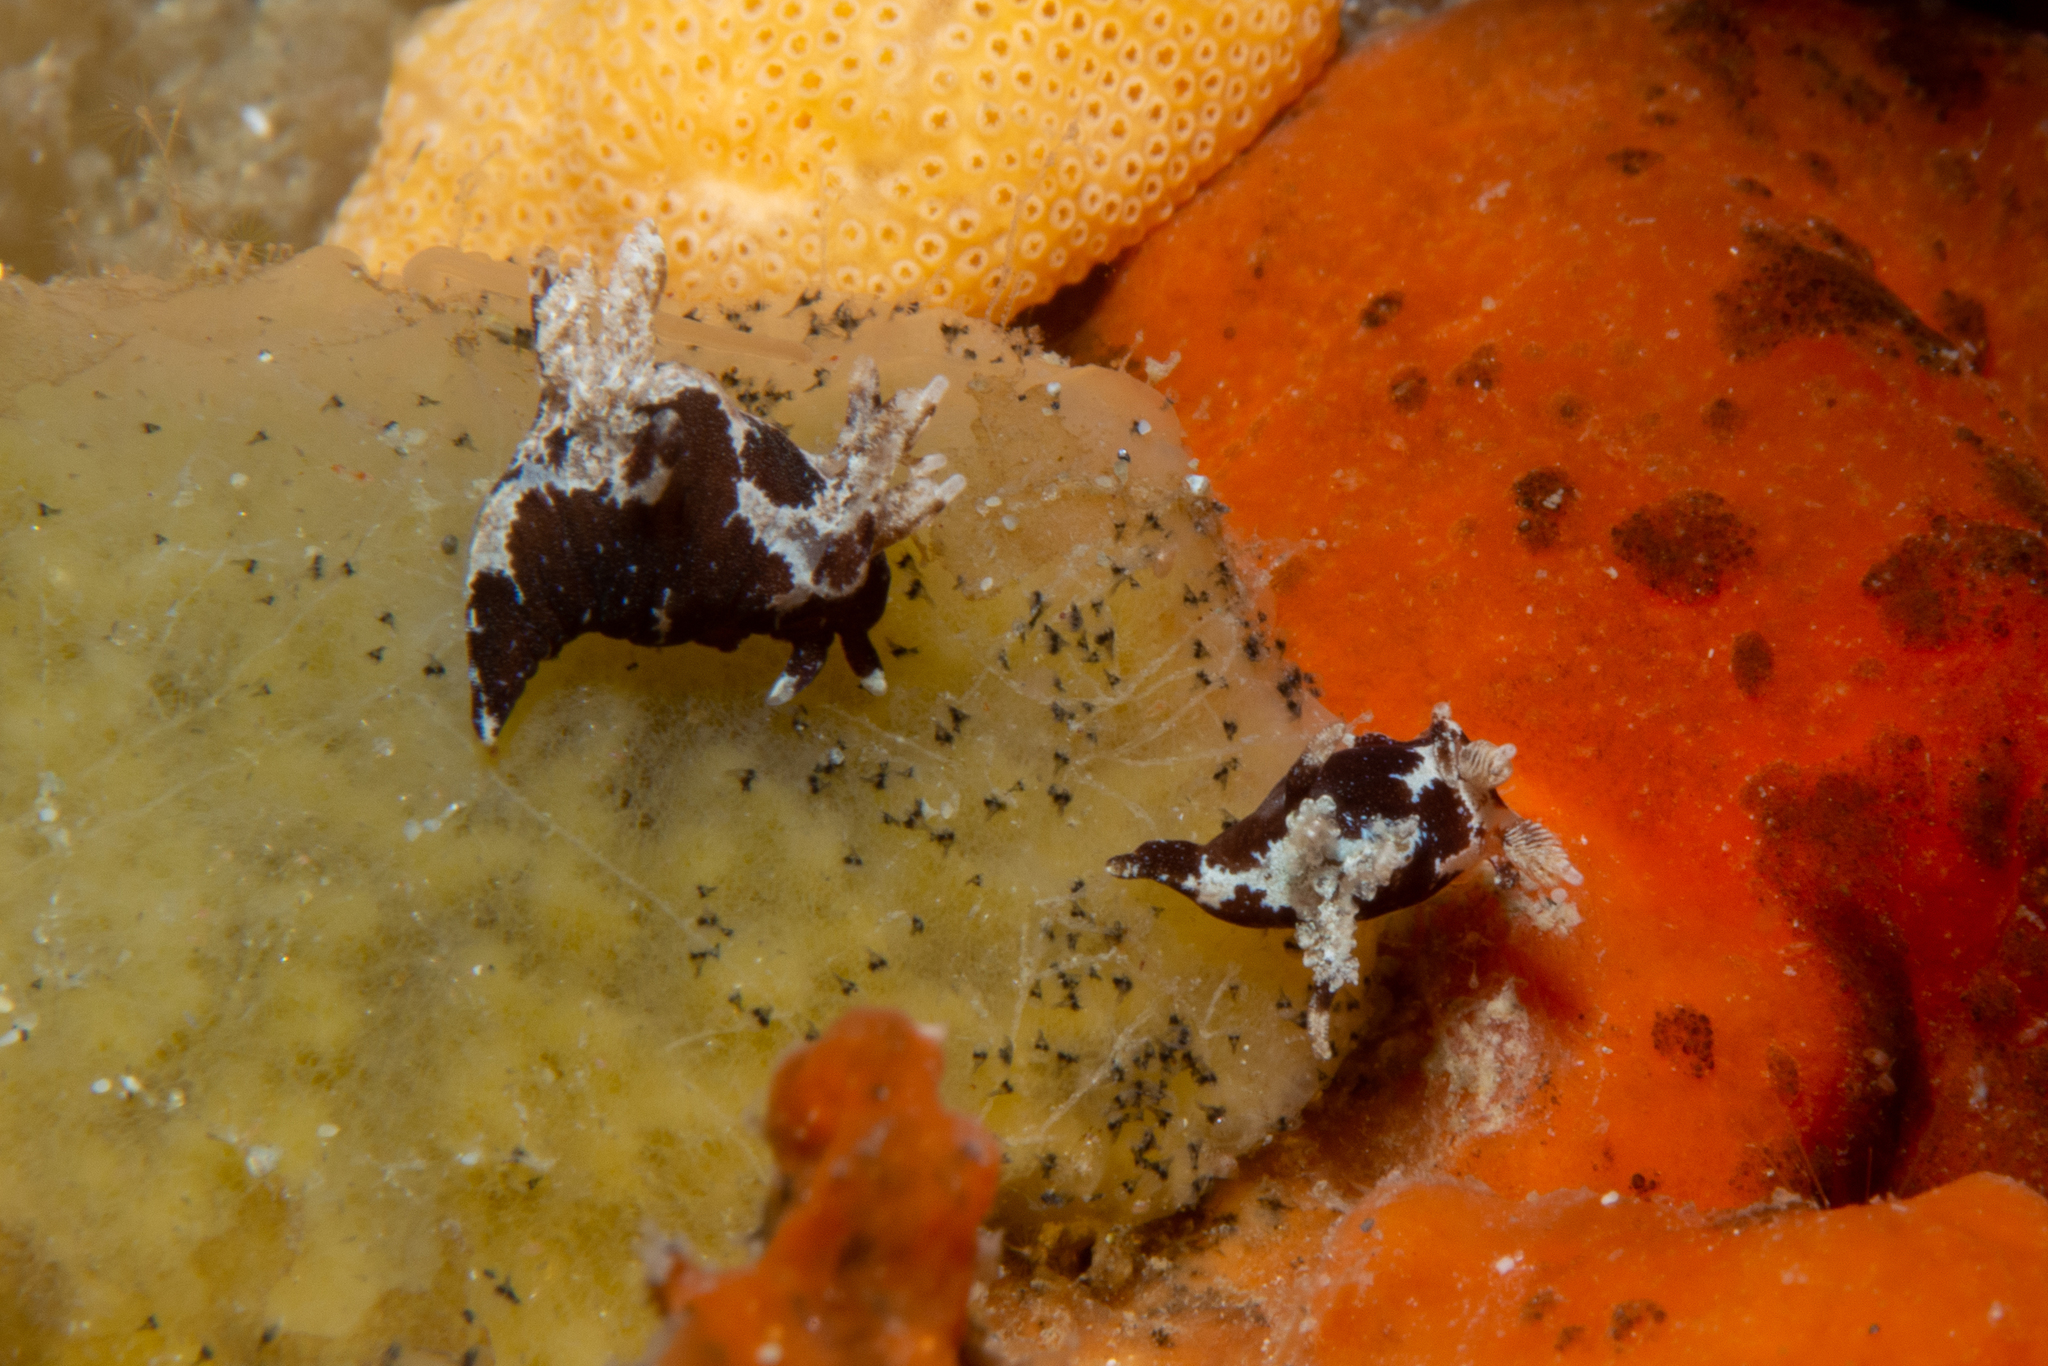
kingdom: Animalia
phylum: Mollusca
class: Gastropoda
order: Nudibranchia
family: Goniodorididae
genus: Trapania
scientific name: Trapania brunnea
